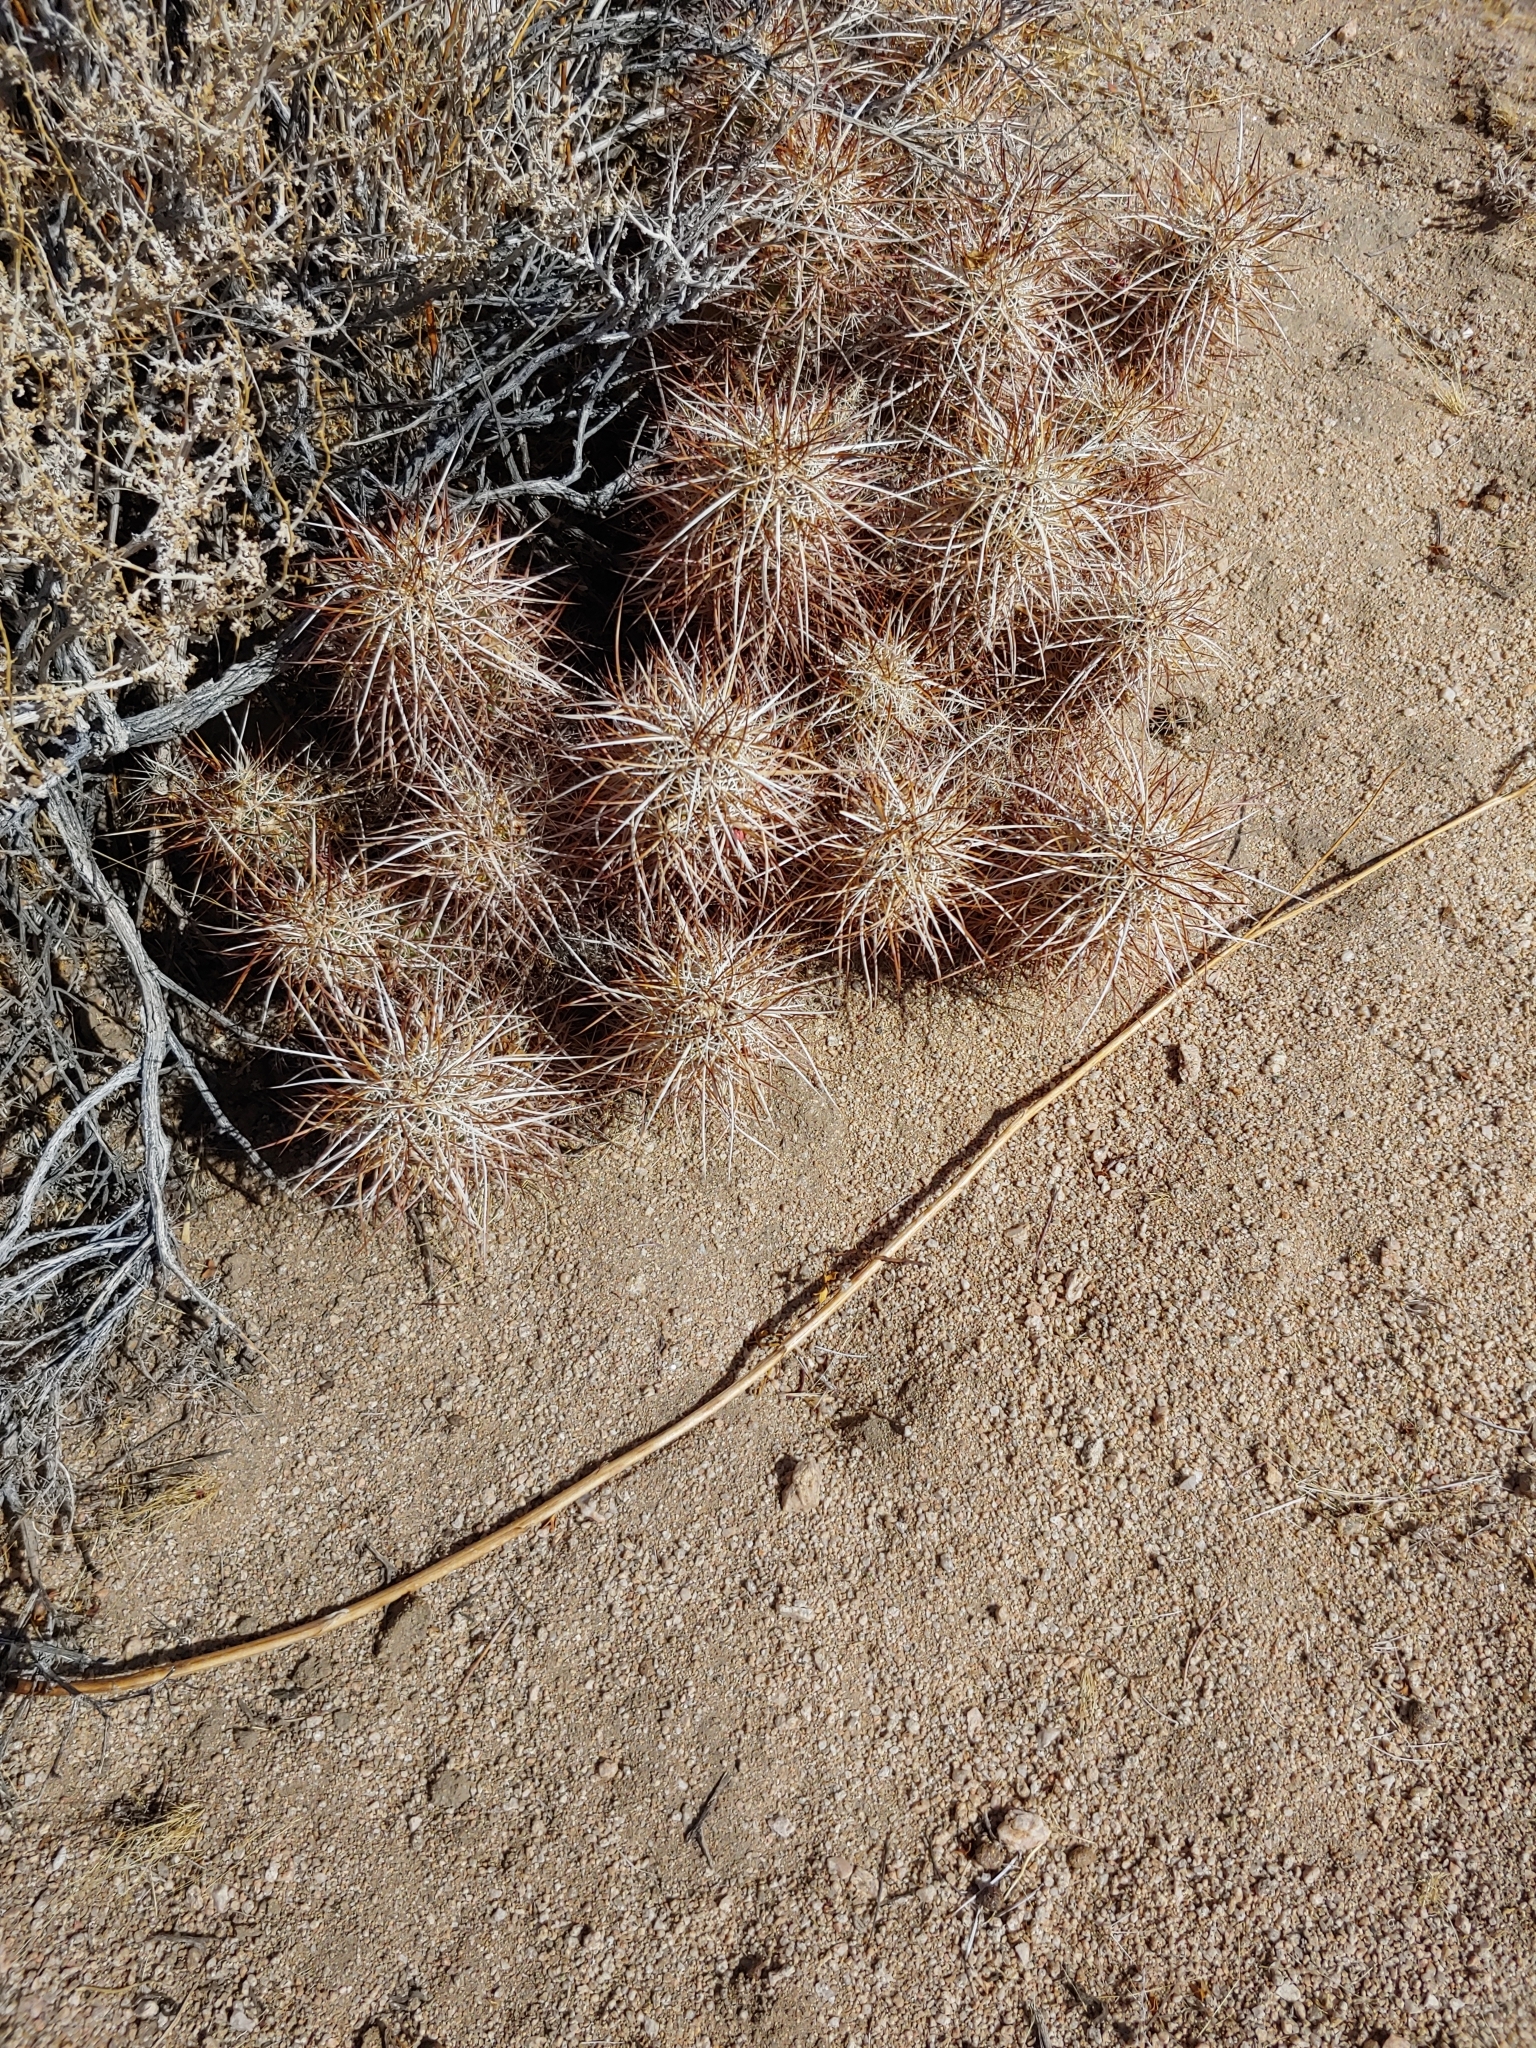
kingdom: Plantae
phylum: Tracheophyta
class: Magnoliopsida
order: Caryophyllales
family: Cactaceae
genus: Echinocereus
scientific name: Echinocereus engelmannii
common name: Engelmann's hedgehog cactus
